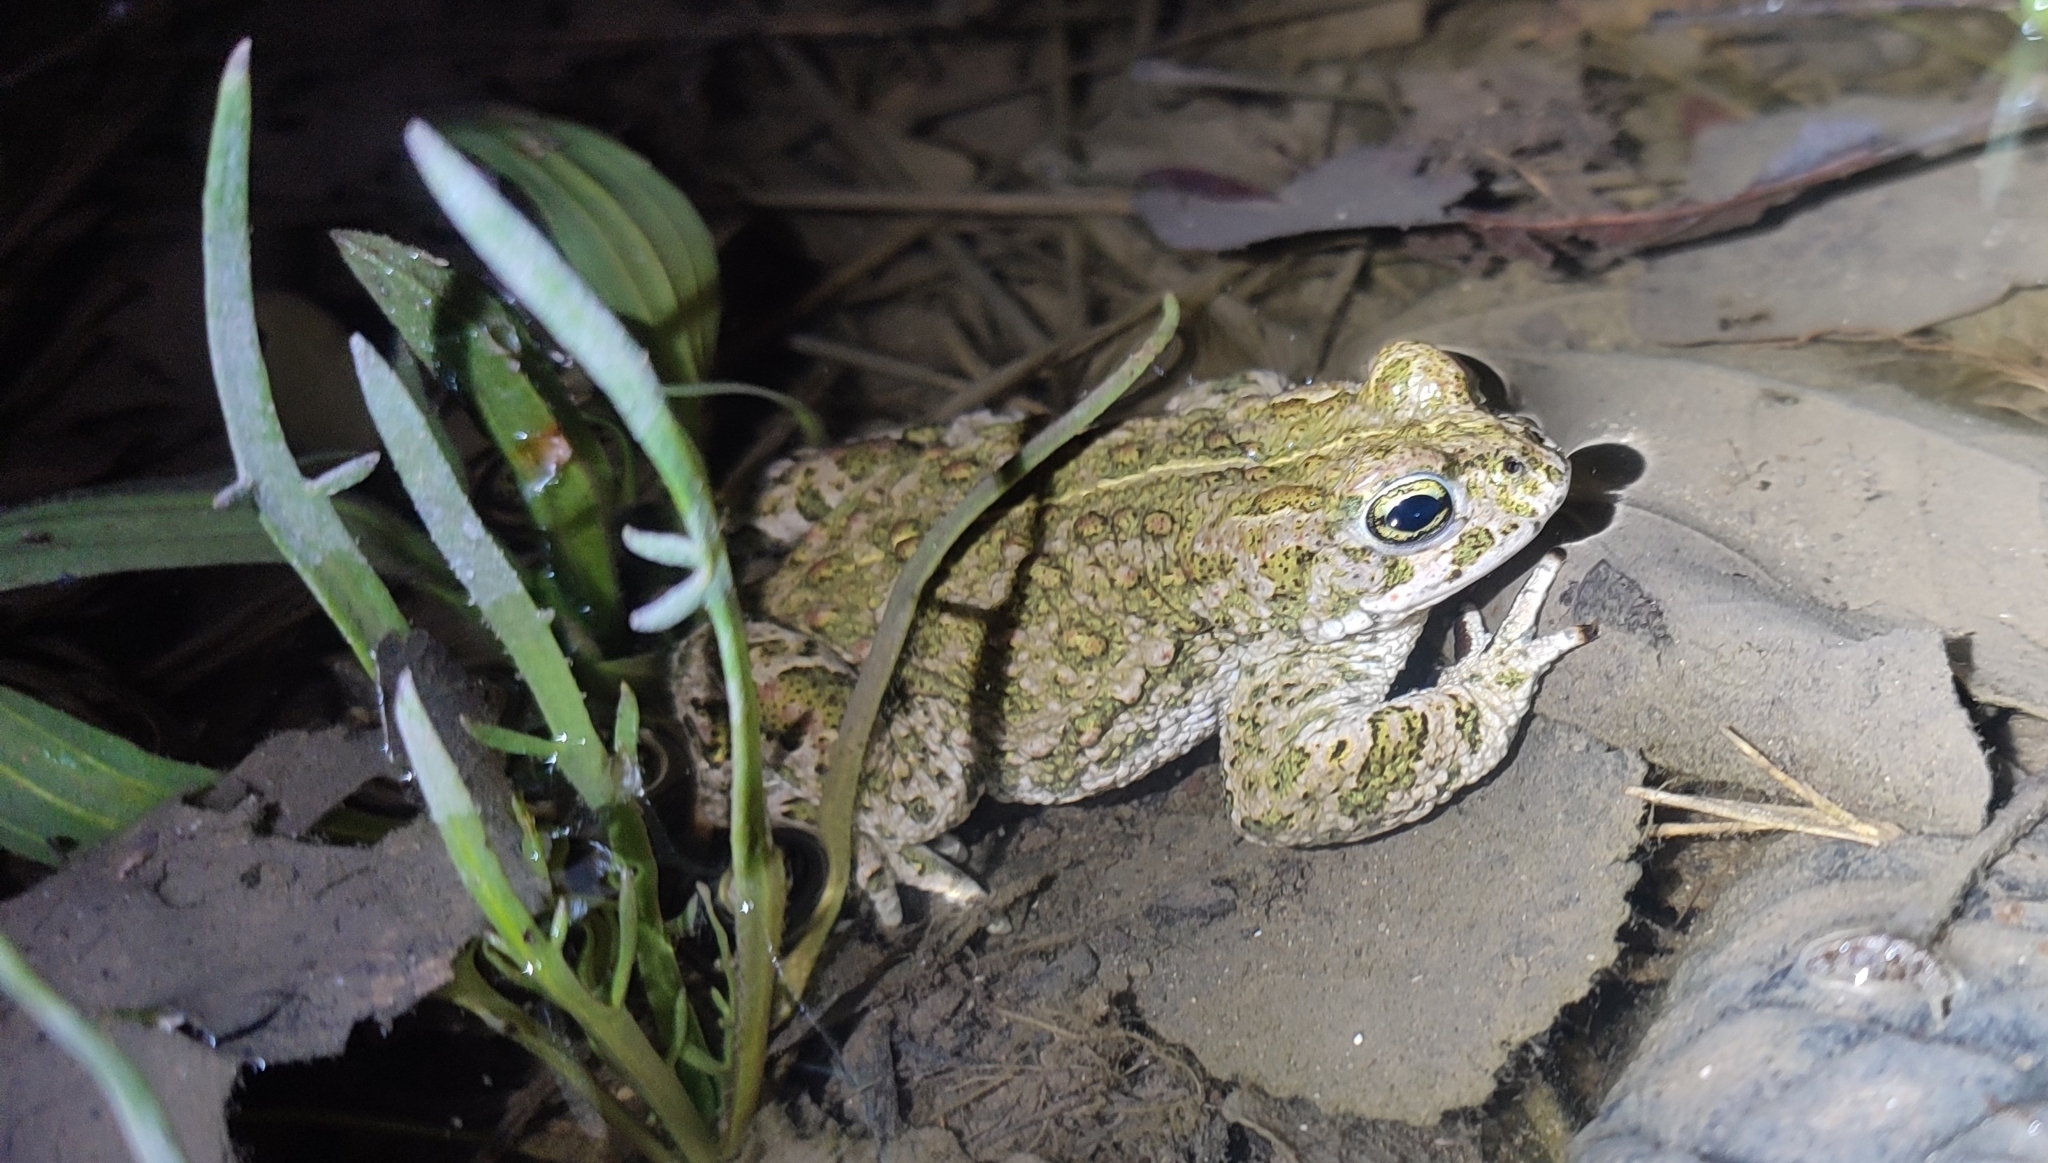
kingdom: Animalia
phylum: Chordata
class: Amphibia
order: Anura
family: Bufonidae
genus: Epidalea
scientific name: Epidalea calamita
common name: Natterjack toad
